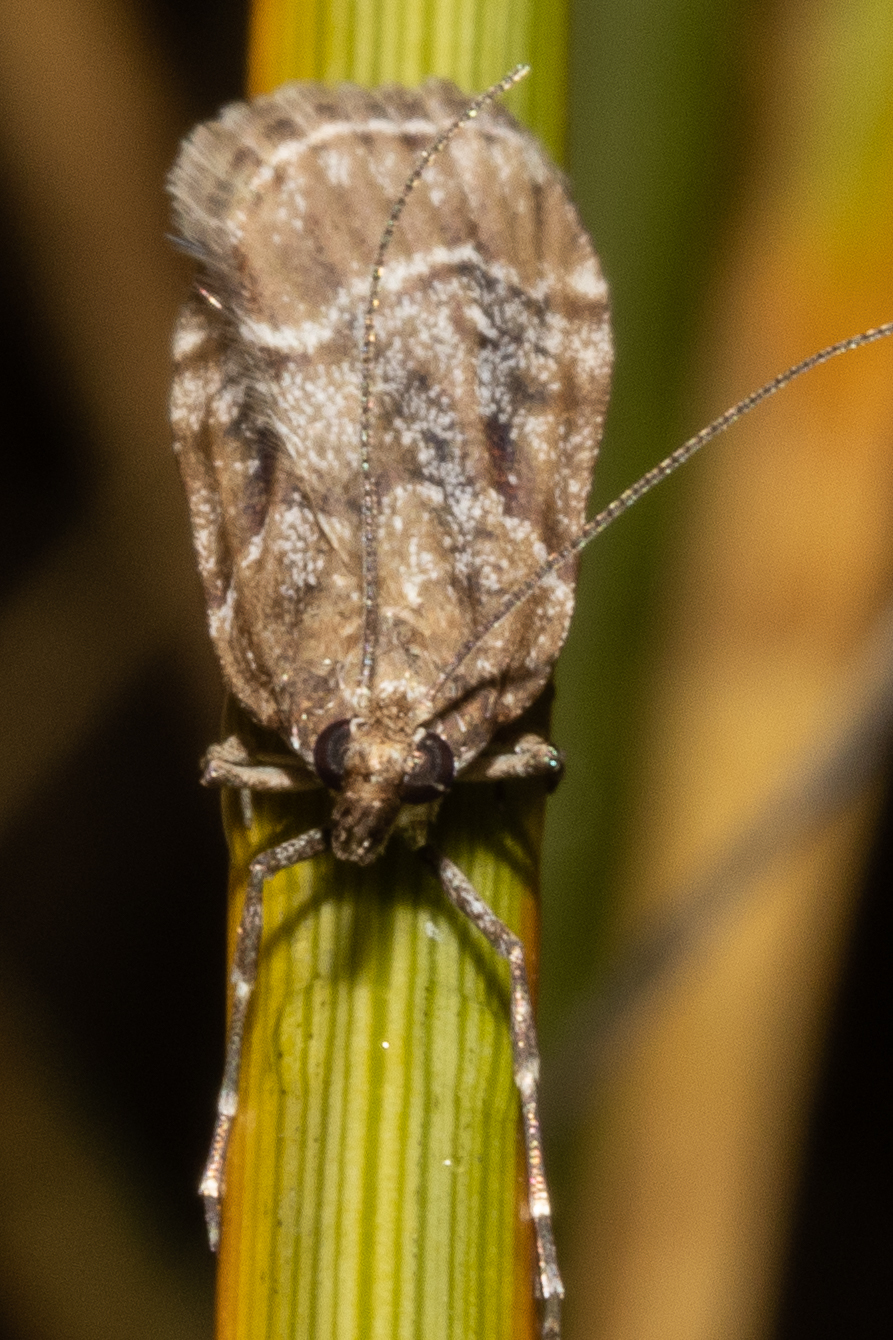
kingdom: Animalia
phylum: Arthropoda
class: Insecta
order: Lepidoptera
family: Crambidae
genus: Eudonia
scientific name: Eudonia legnota
